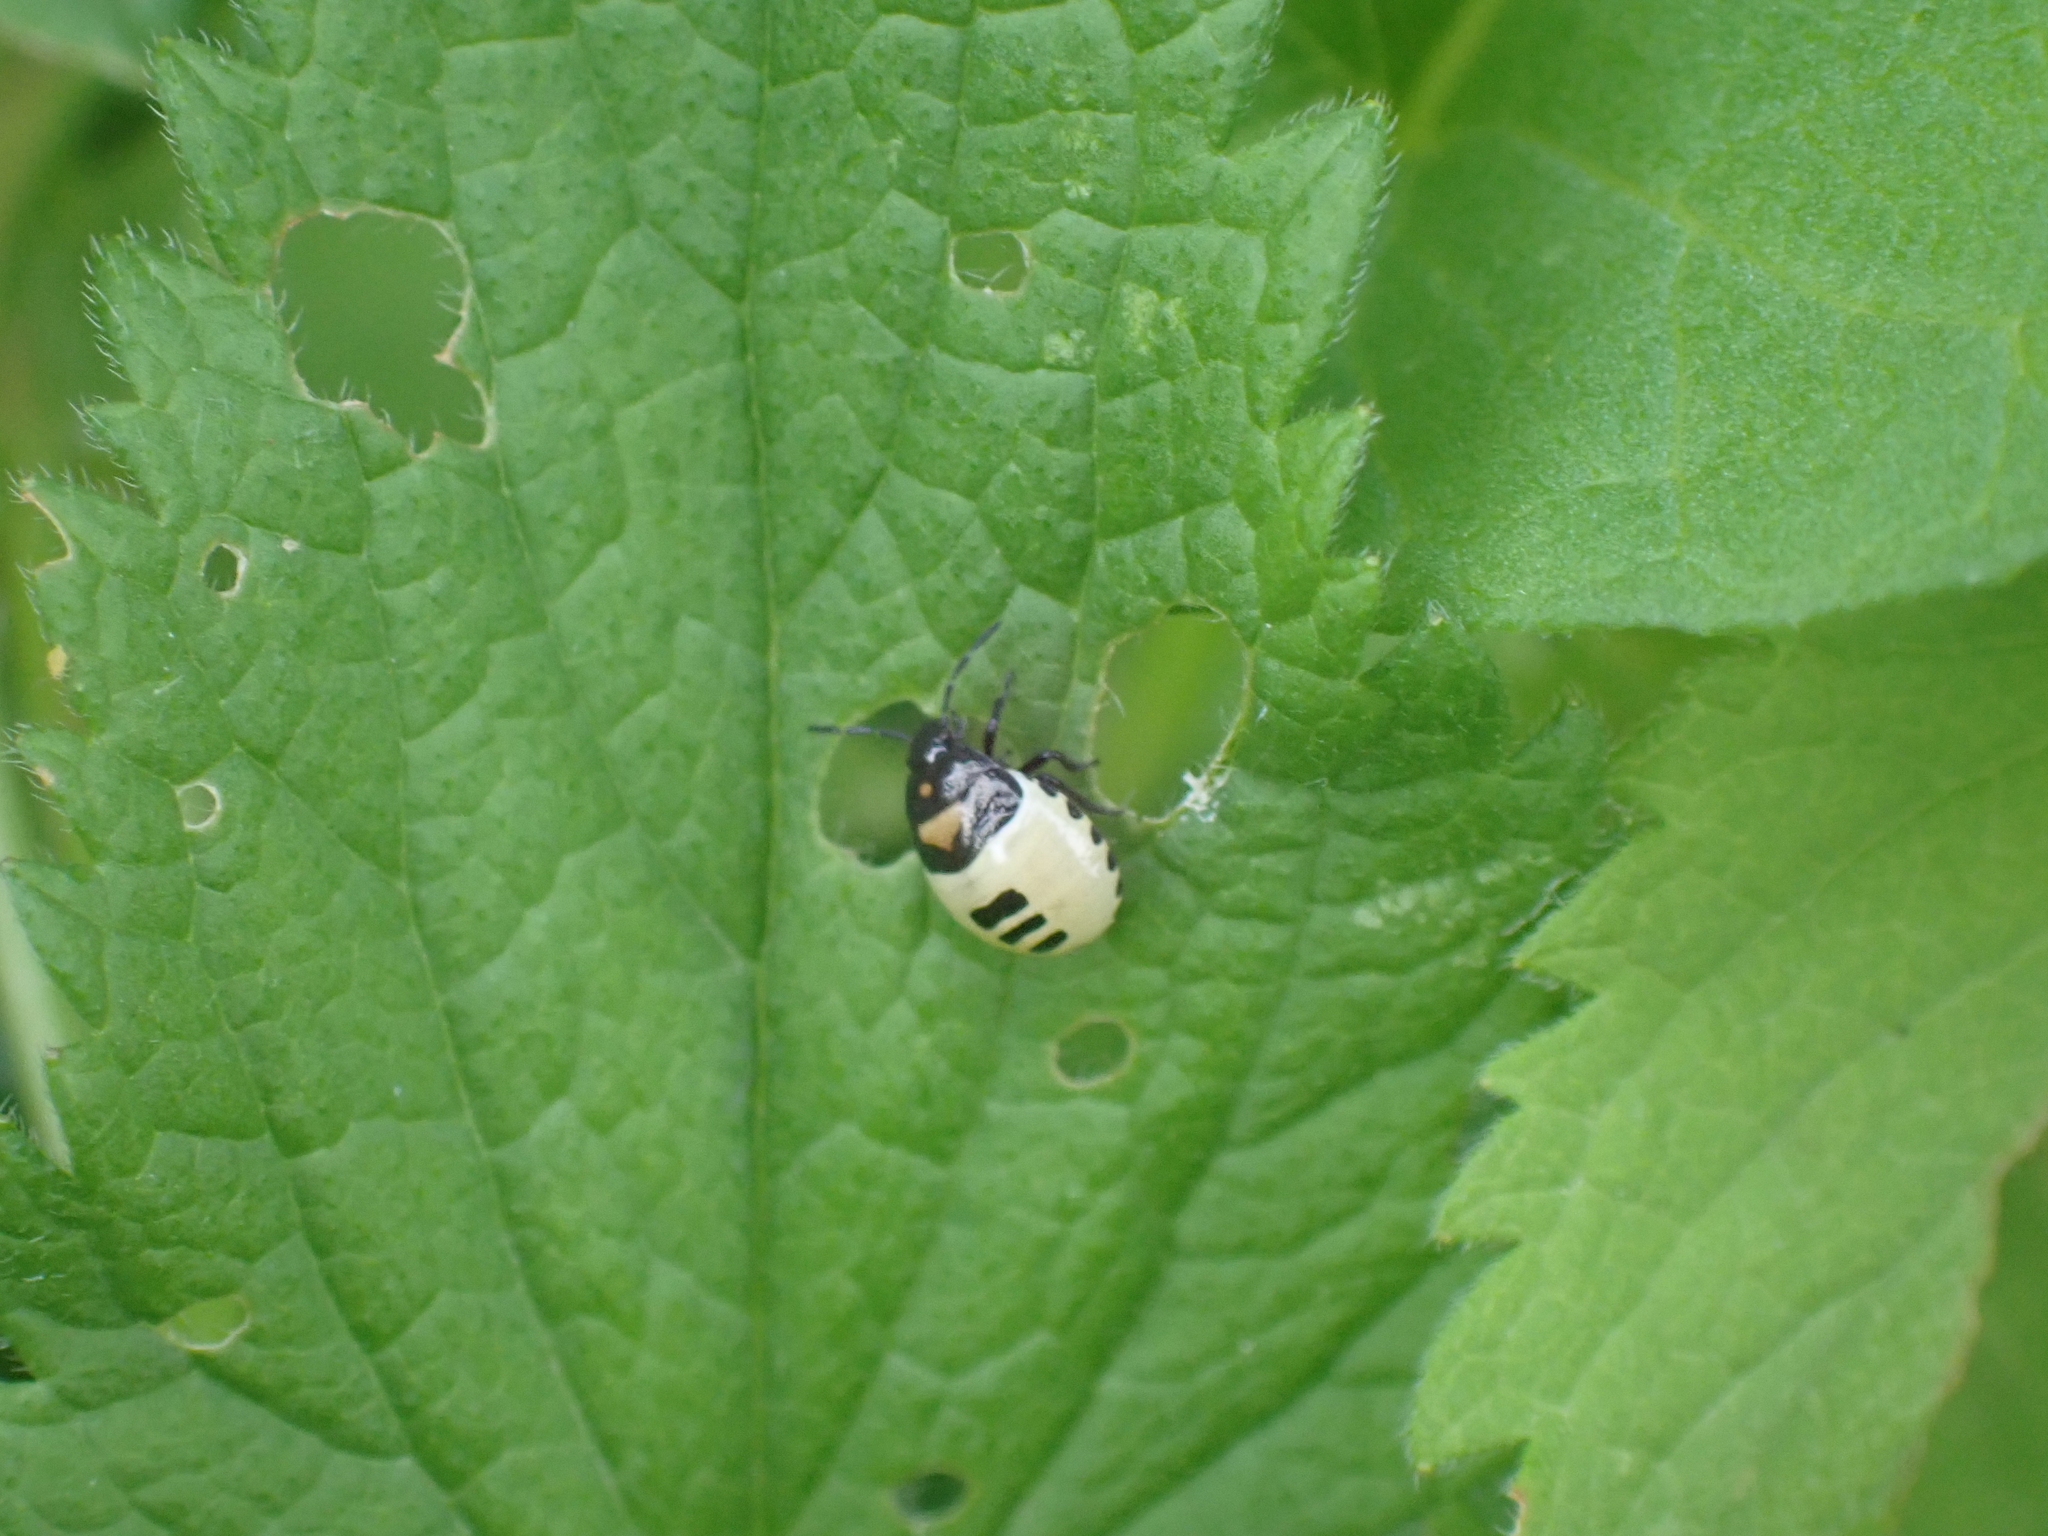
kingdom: Animalia
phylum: Arthropoda
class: Insecta
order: Hemiptera
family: Cydnidae
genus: Tritomegas
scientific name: Tritomegas bicolor
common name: Pied shieldbug
